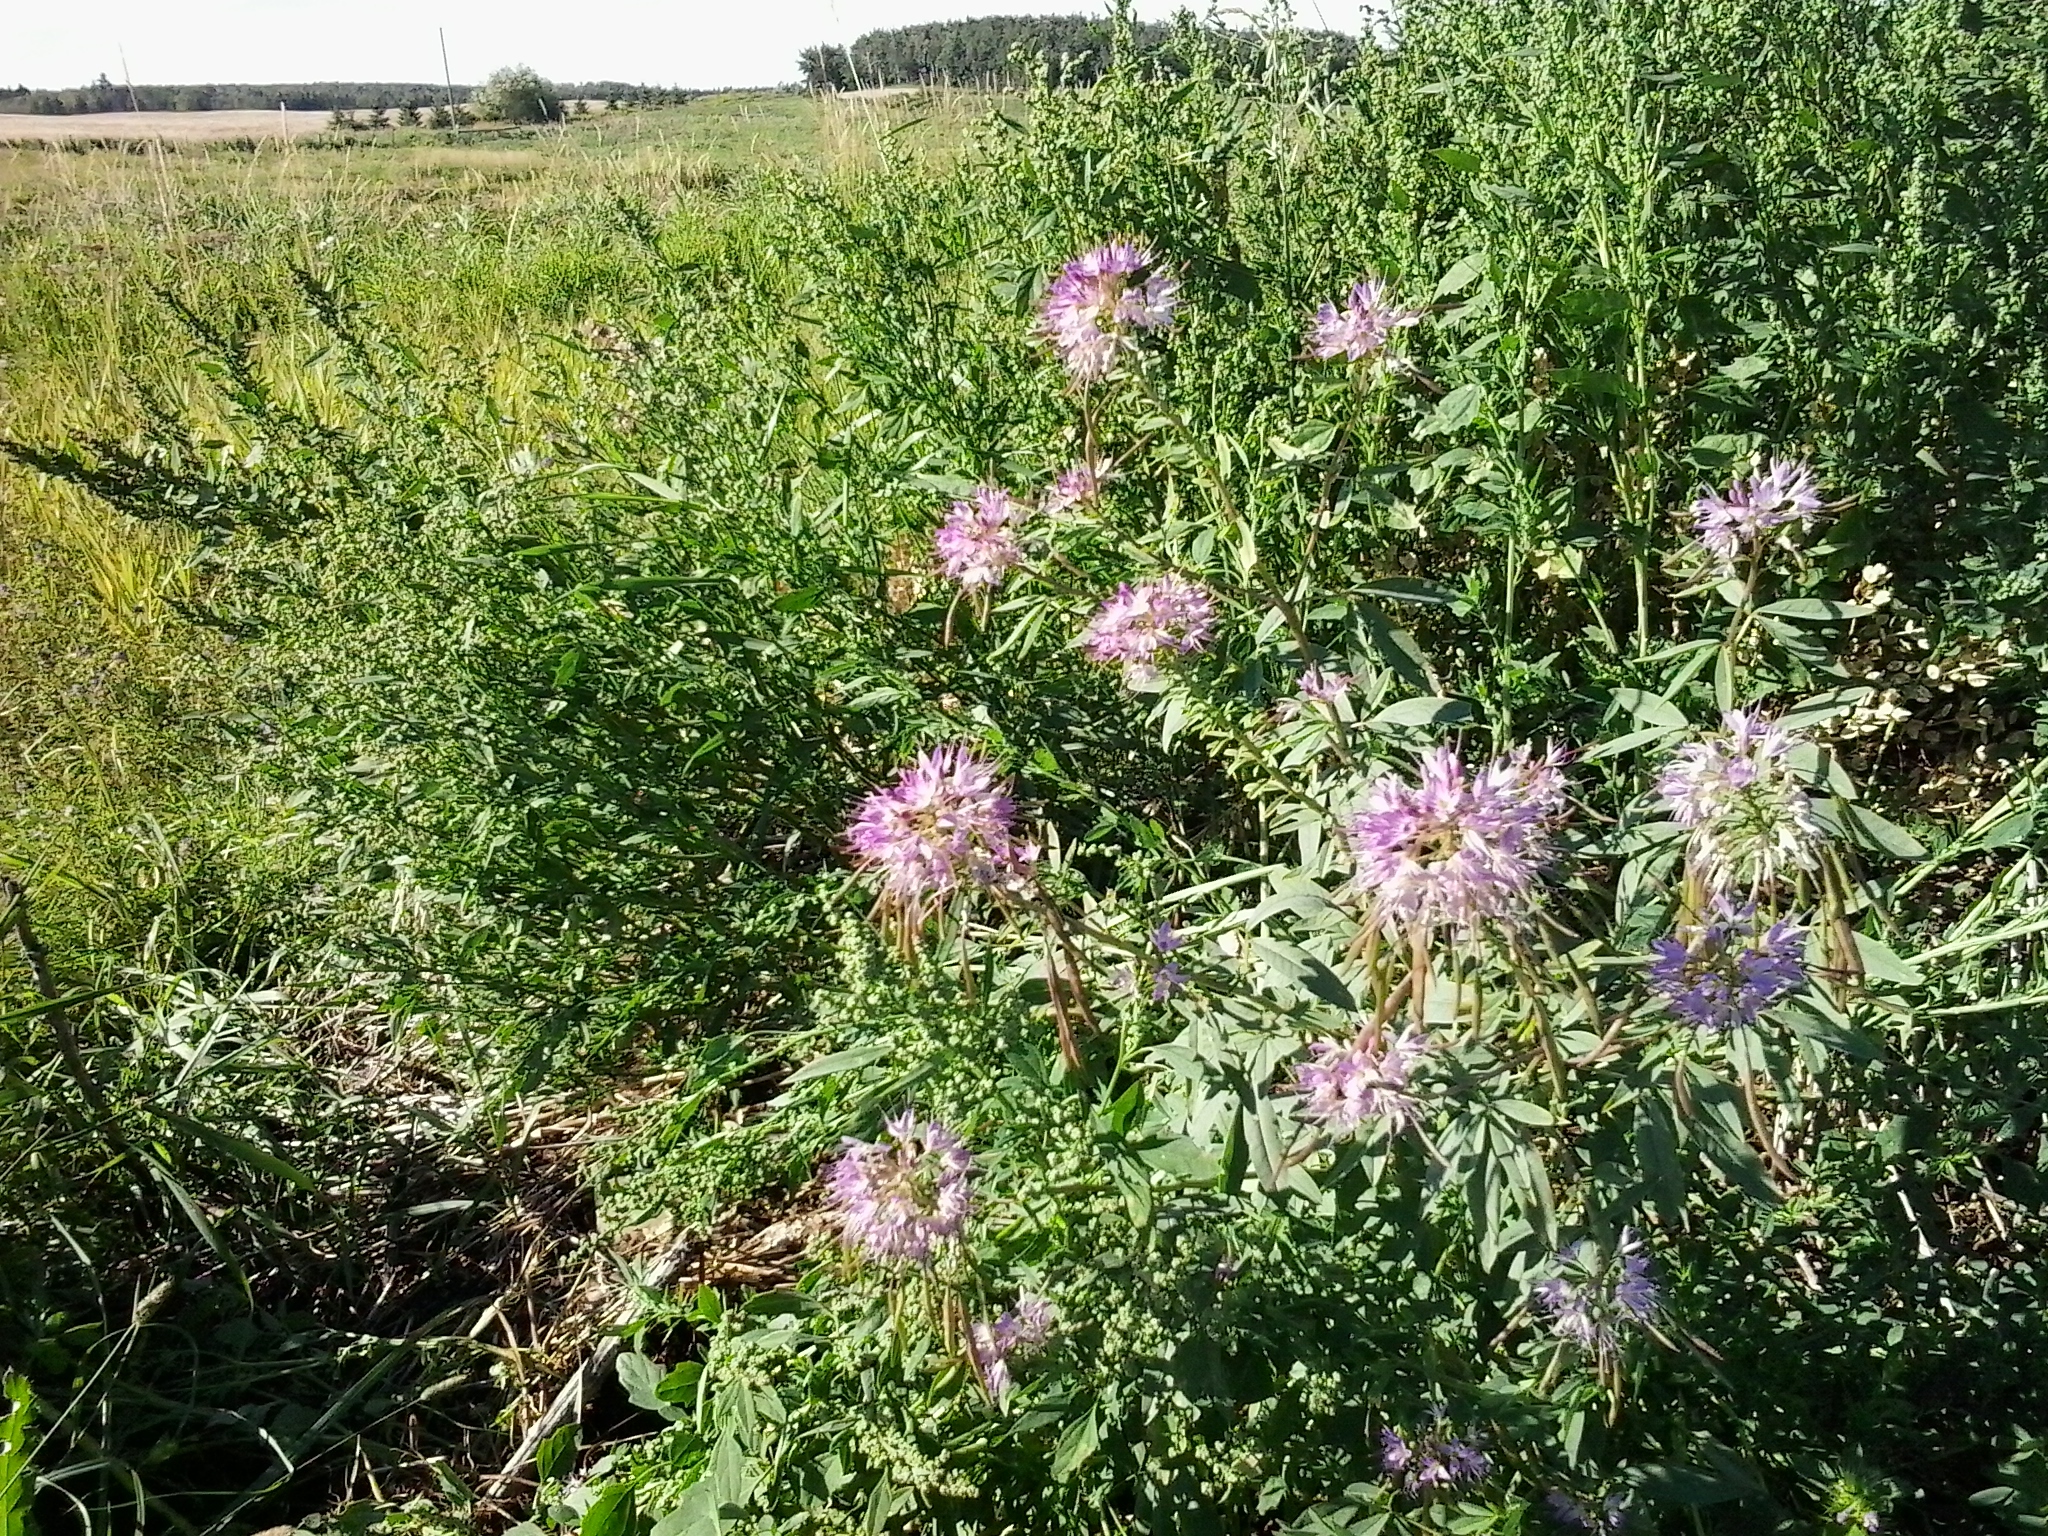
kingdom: Plantae
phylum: Tracheophyta
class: Magnoliopsida
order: Brassicales
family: Cleomaceae
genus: Cleomella
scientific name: Cleomella serrulata
